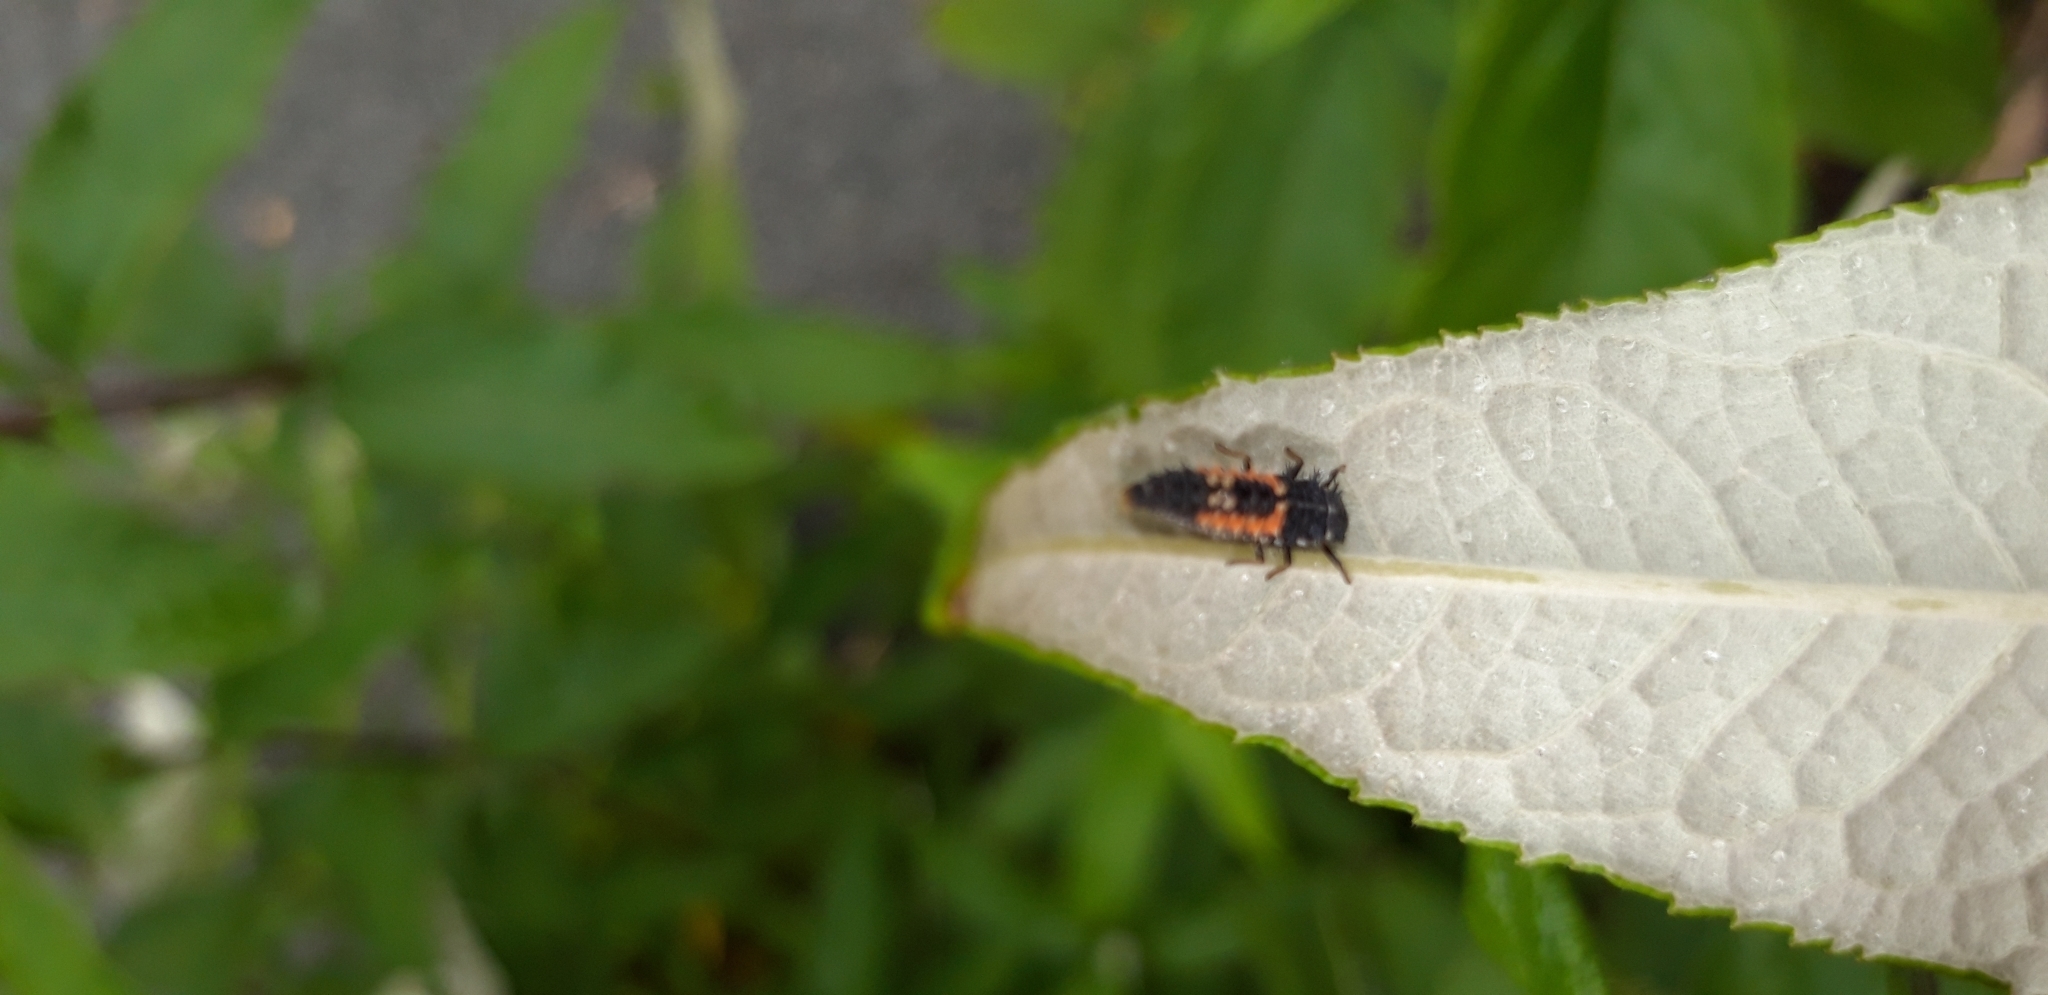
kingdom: Animalia
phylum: Arthropoda
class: Insecta
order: Coleoptera
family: Coccinellidae
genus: Harmonia
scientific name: Harmonia axyridis
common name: Harlequin ladybird
